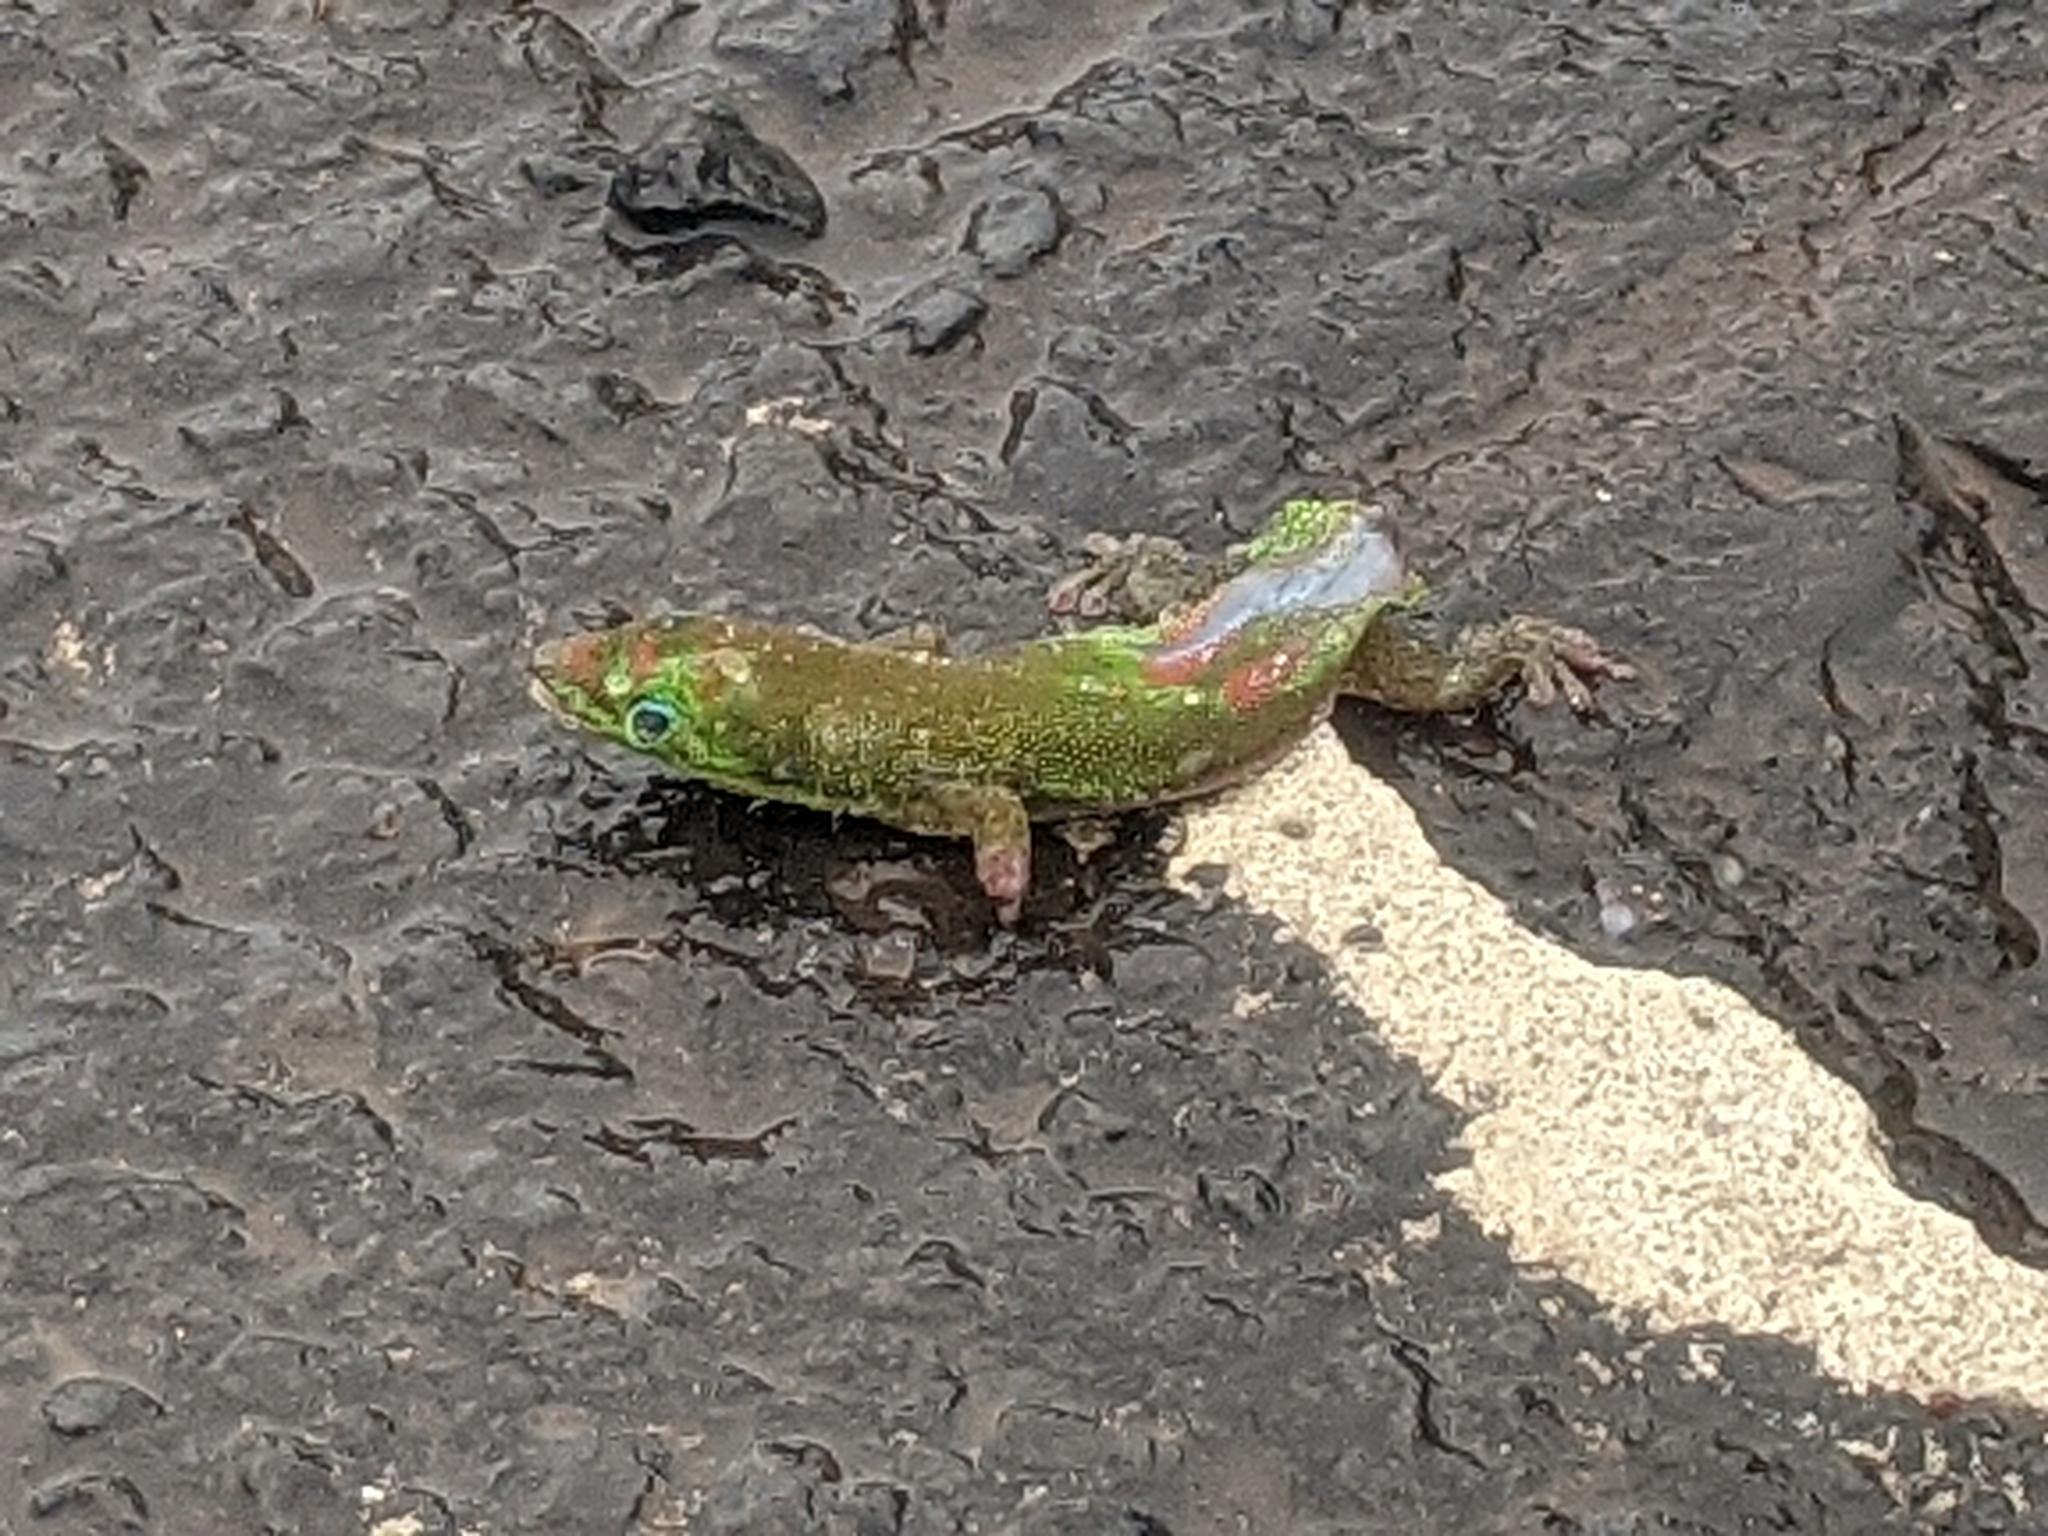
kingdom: Animalia
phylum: Chordata
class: Squamata
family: Gekkonidae
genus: Phelsuma
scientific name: Phelsuma laticauda
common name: Gold dust day gecko
